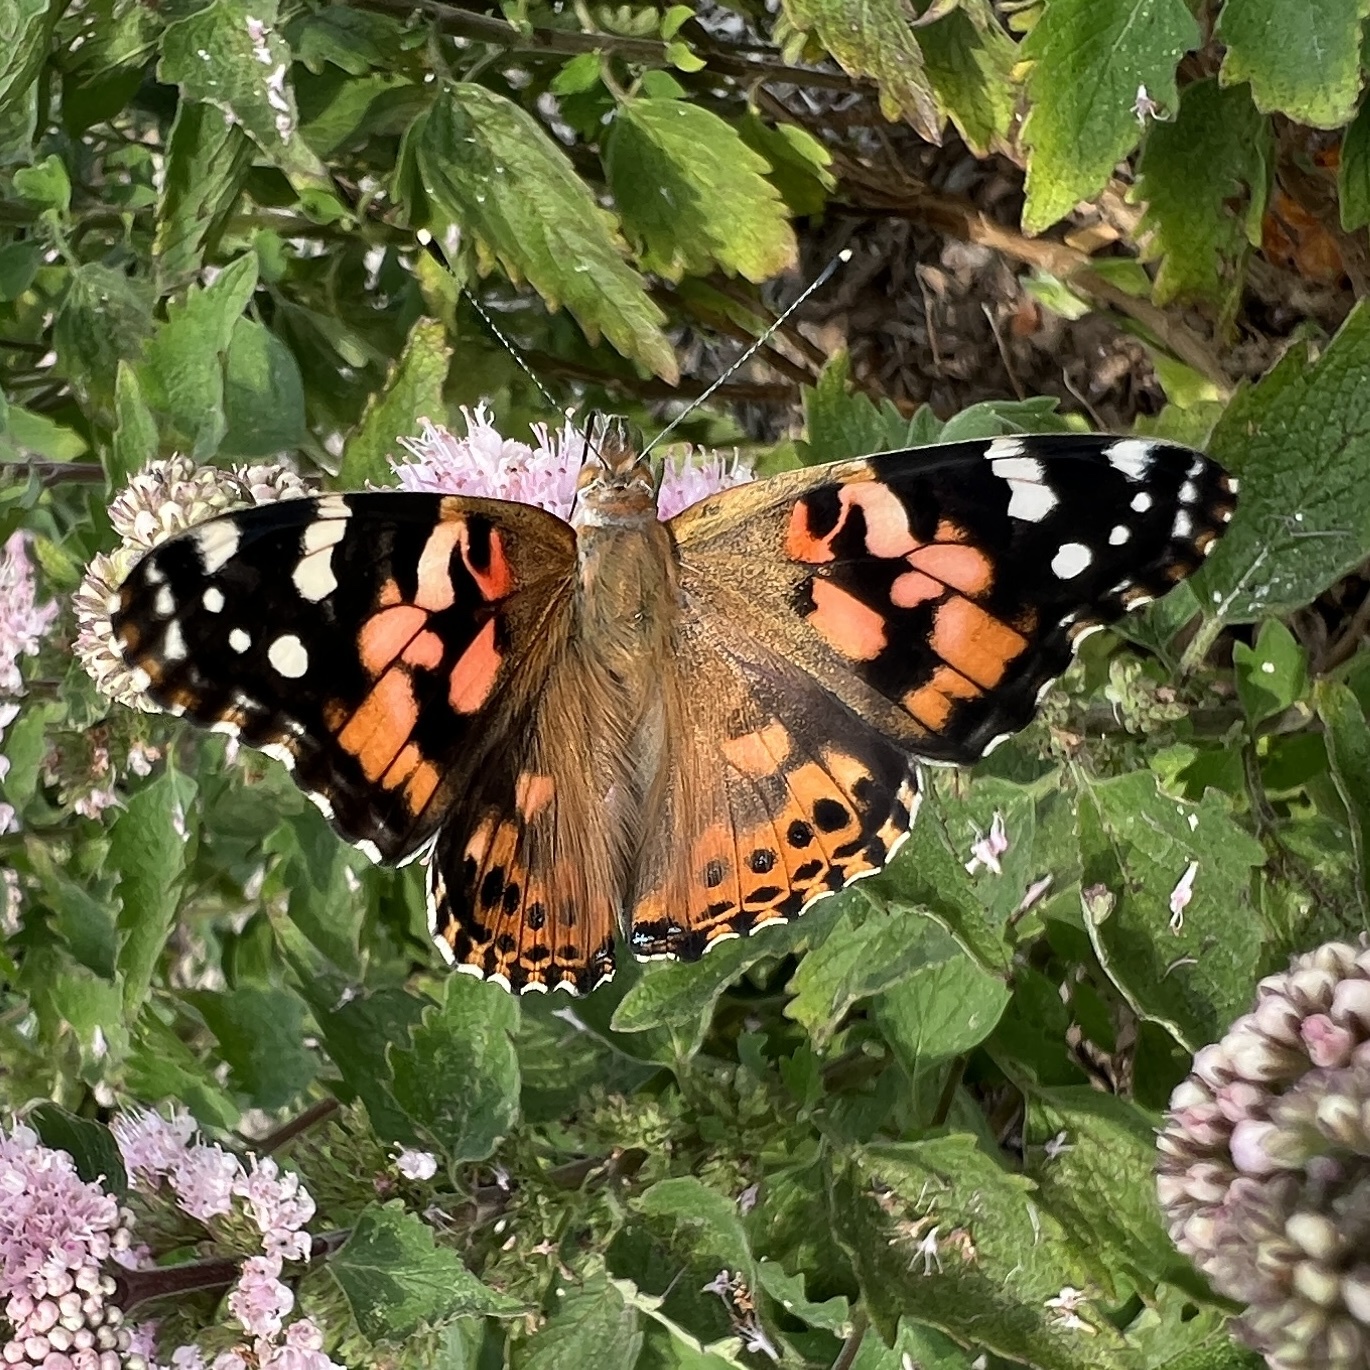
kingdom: Animalia
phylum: Arthropoda
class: Insecta
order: Lepidoptera
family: Nymphalidae
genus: Vanessa
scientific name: Vanessa cardui
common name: Painted lady
